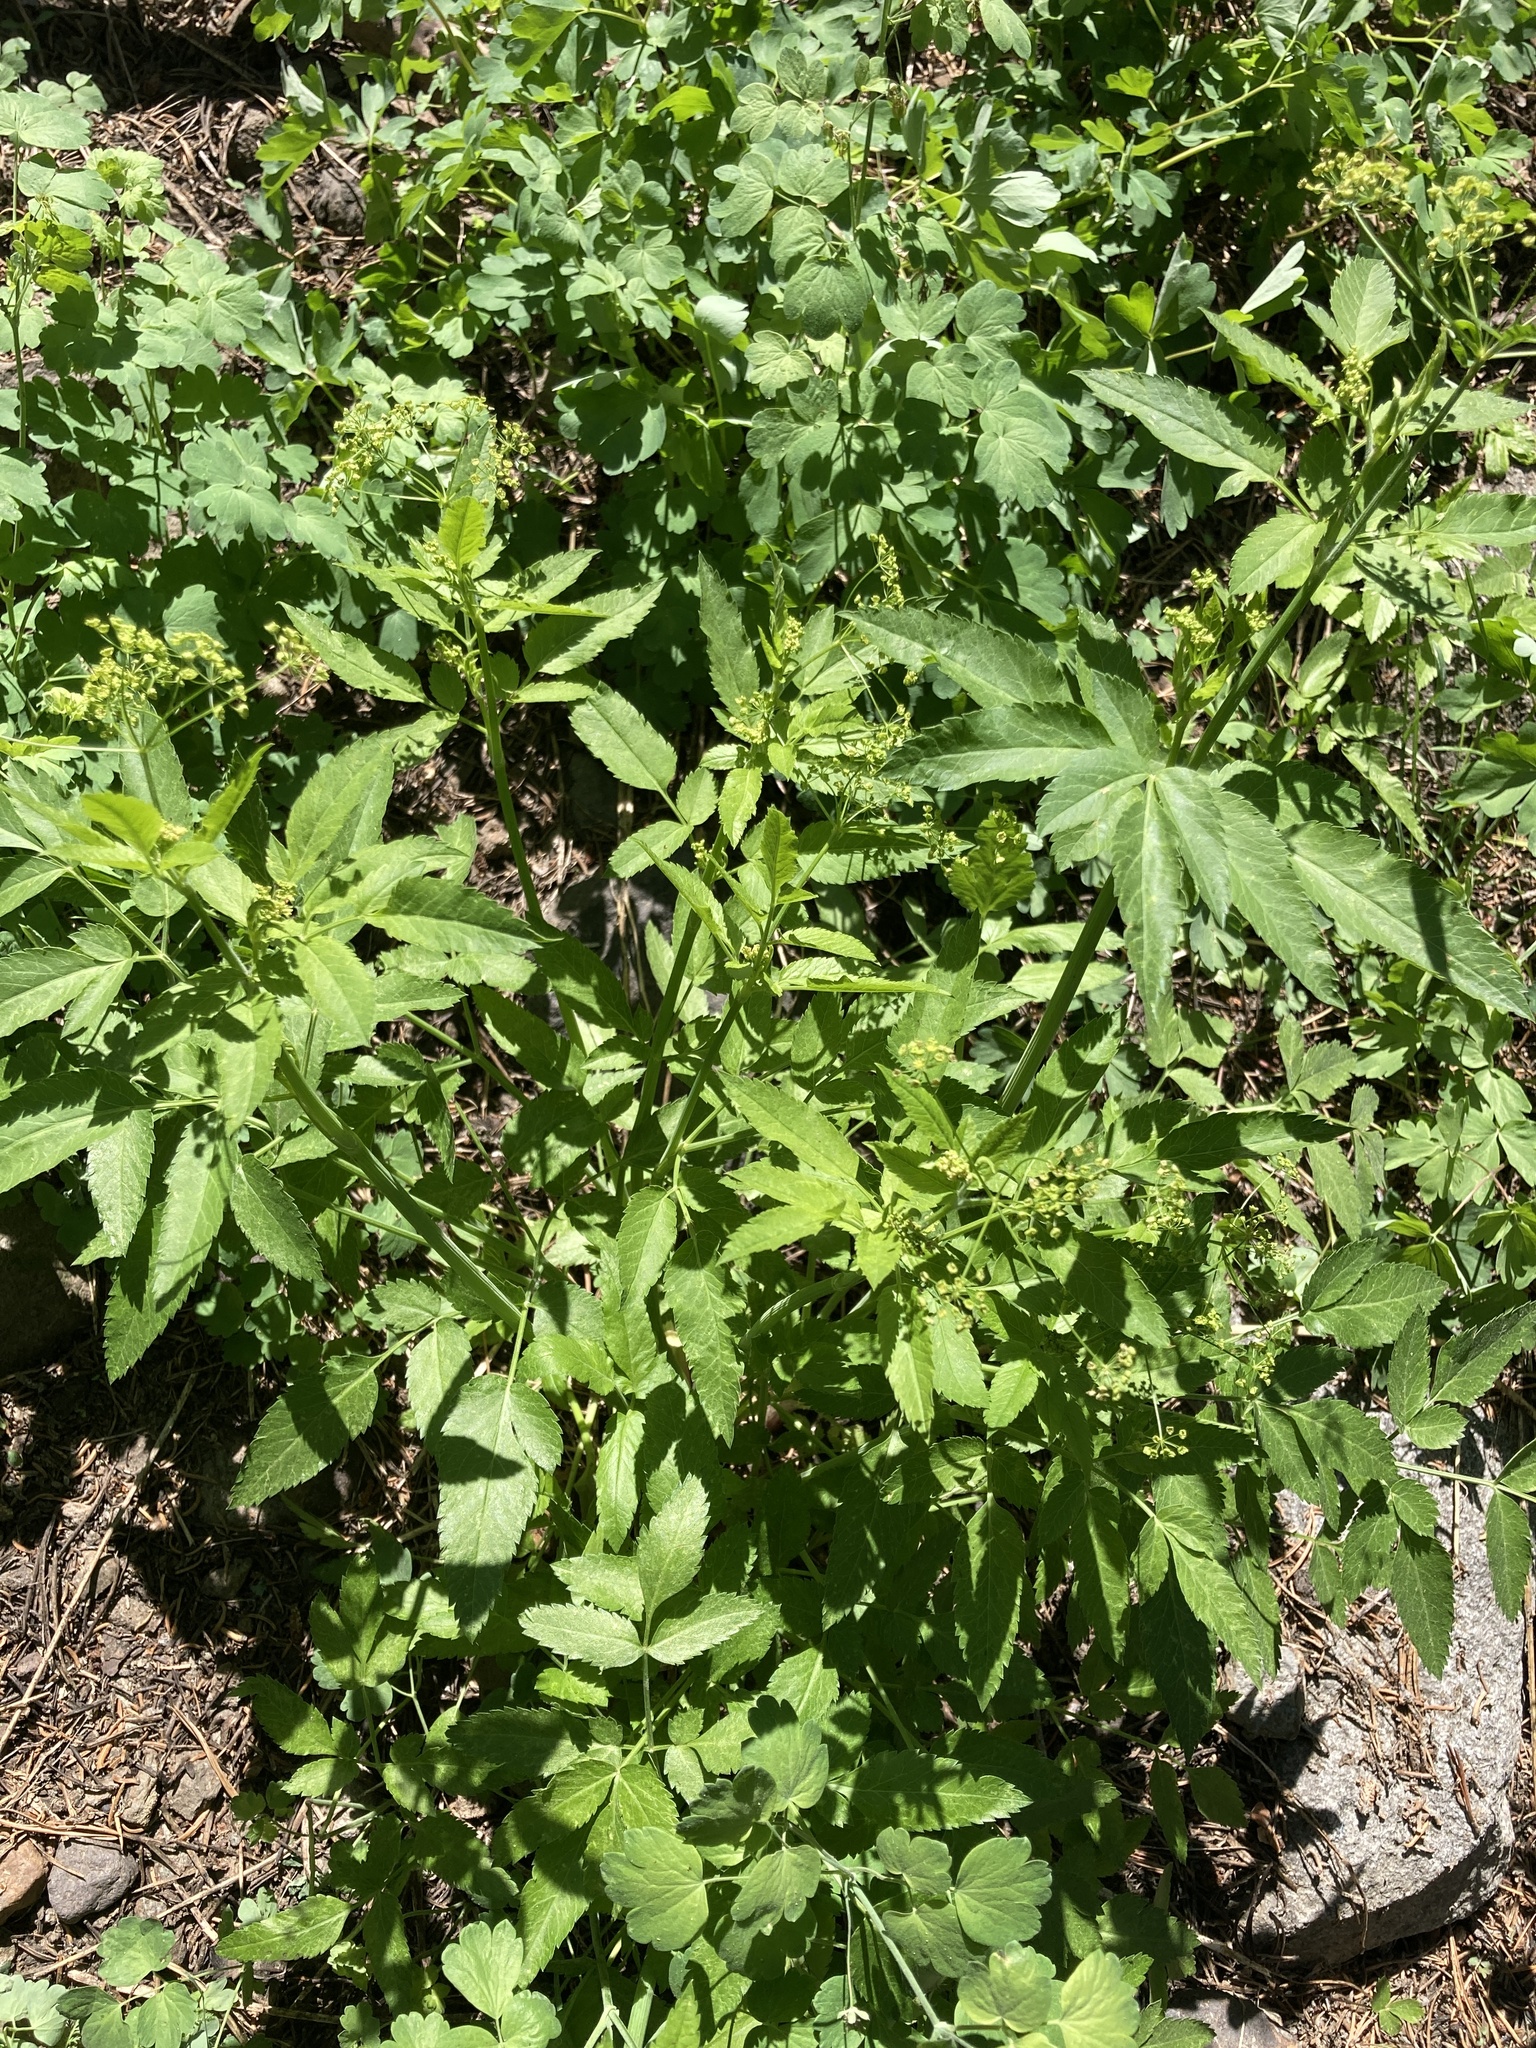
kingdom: Plantae
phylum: Tracheophyta
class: Magnoliopsida
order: Apiales
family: Apiaceae
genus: Osmorhiza
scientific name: Osmorhiza occidentalis
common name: Western sweet cicely
